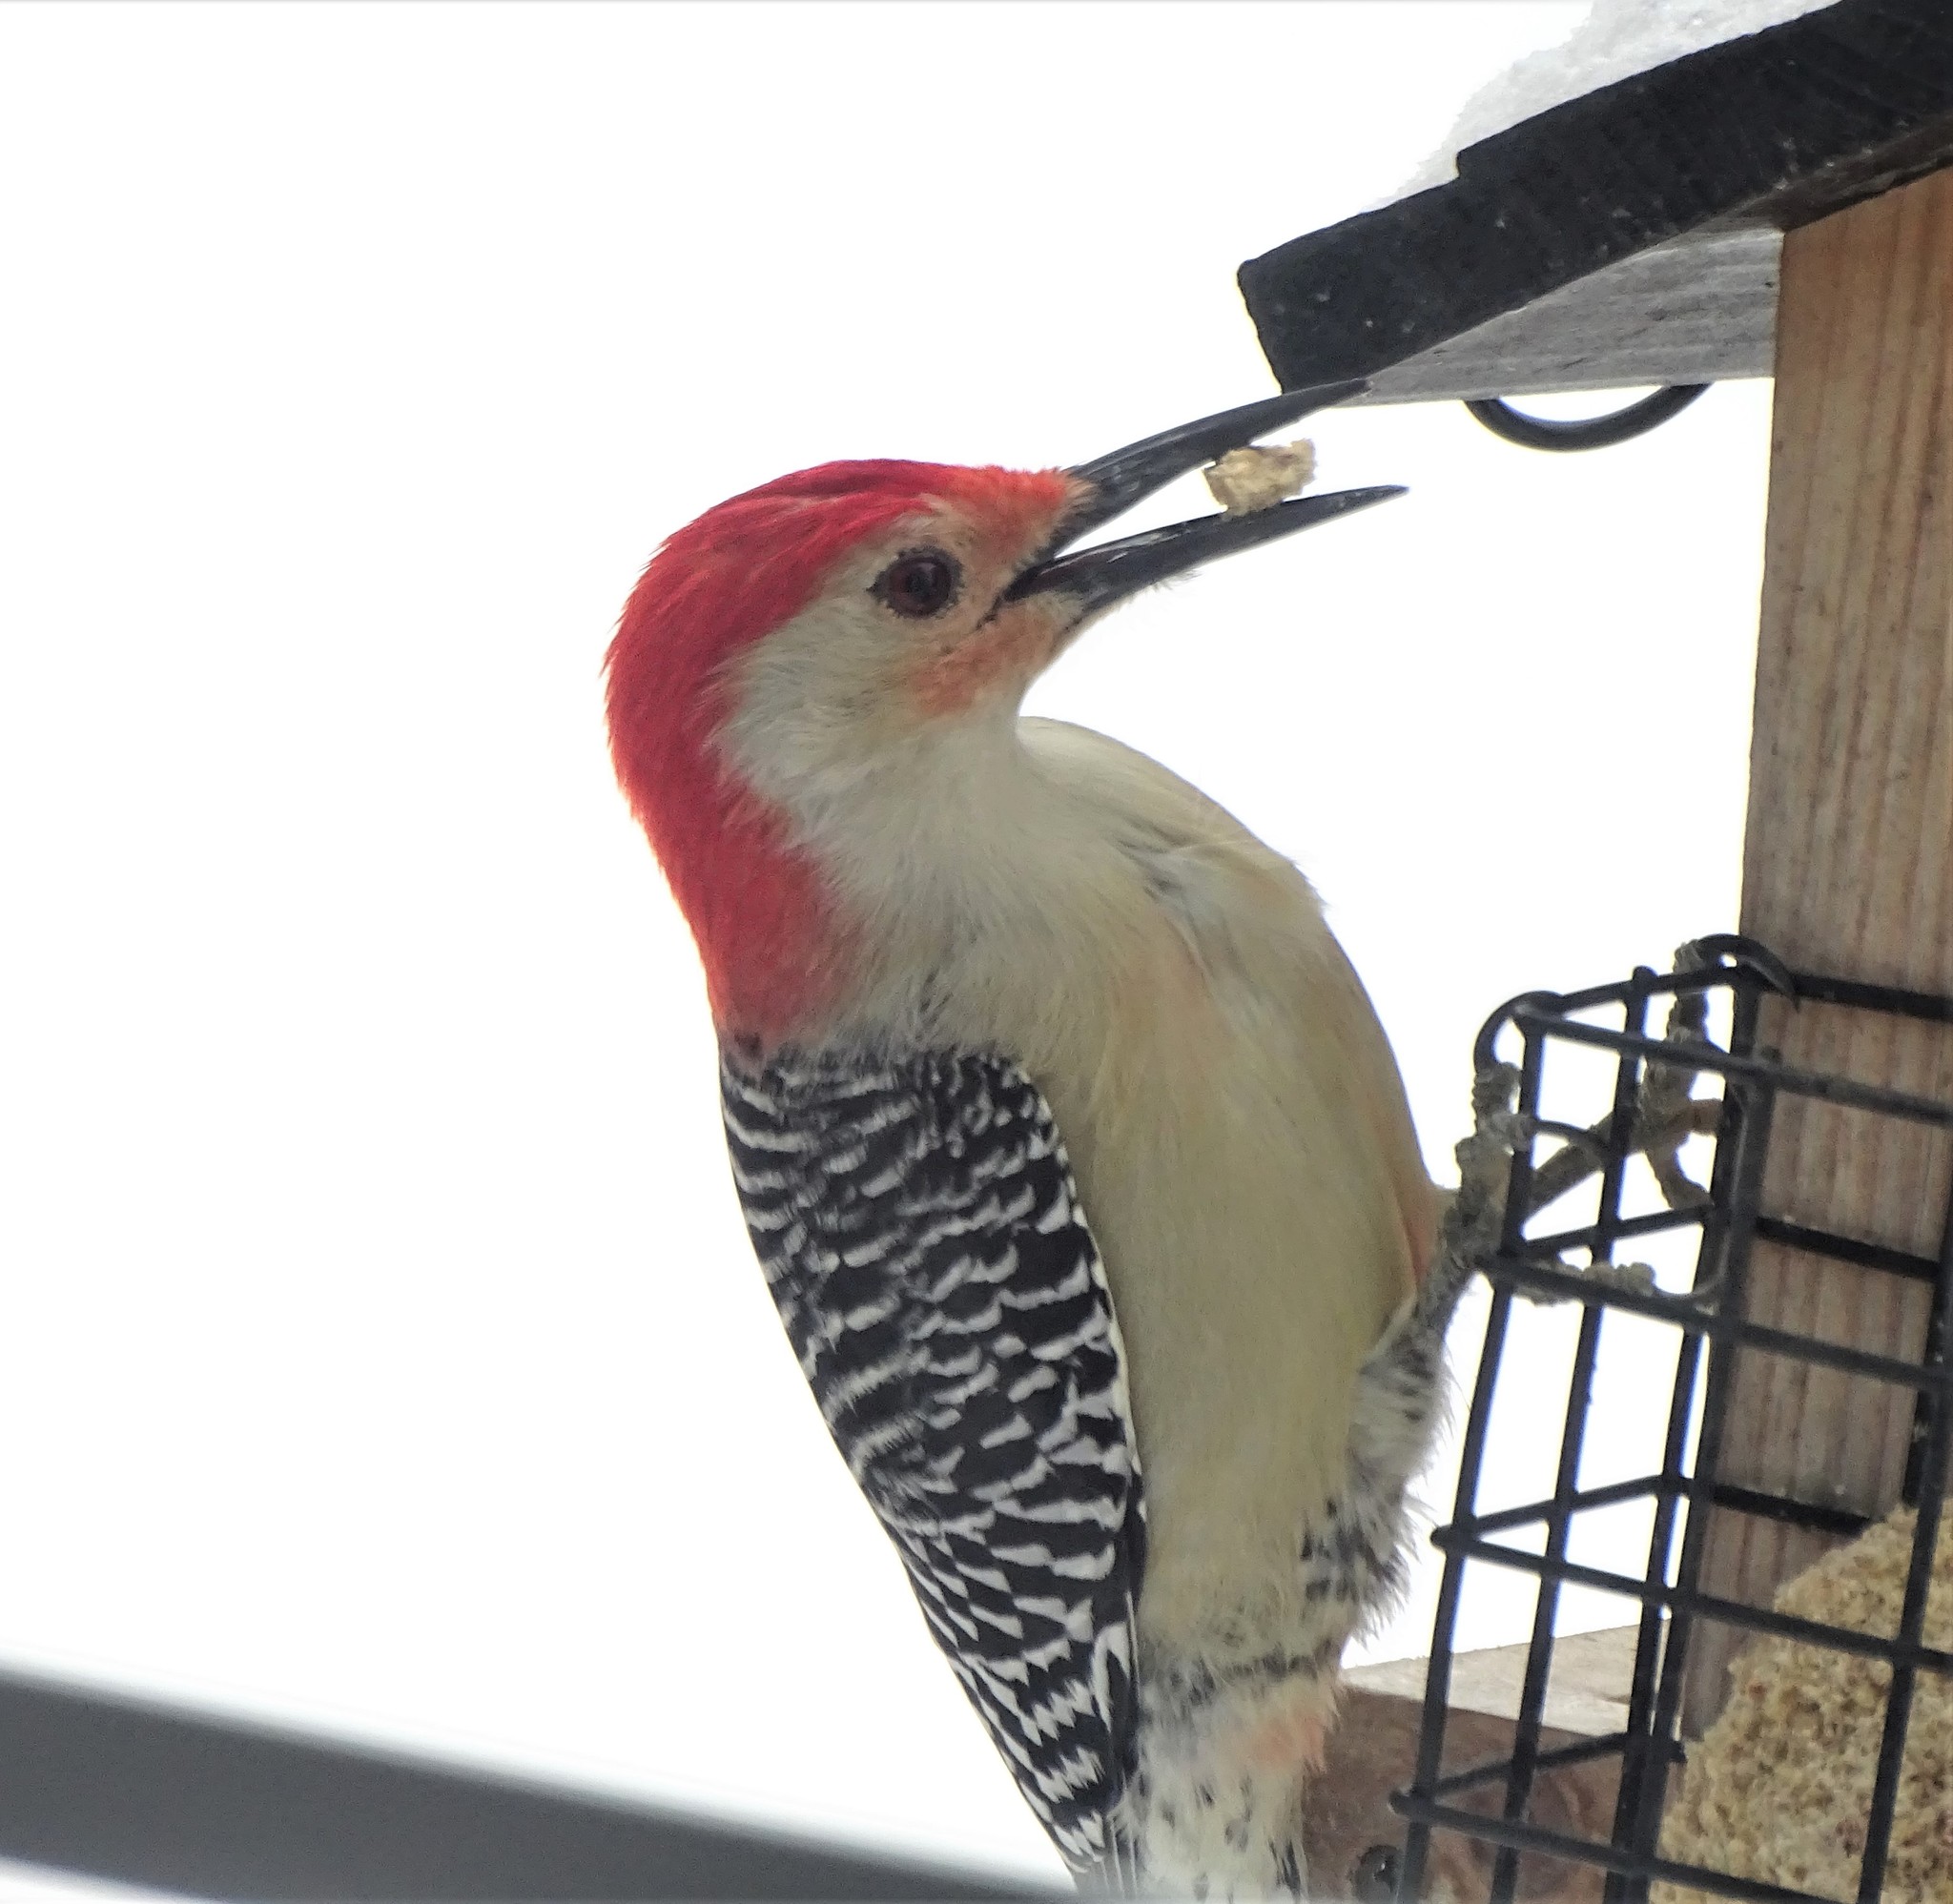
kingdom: Animalia
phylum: Chordata
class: Aves
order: Piciformes
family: Picidae
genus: Melanerpes
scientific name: Melanerpes carolinus
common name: Red-bellied woodpecker
